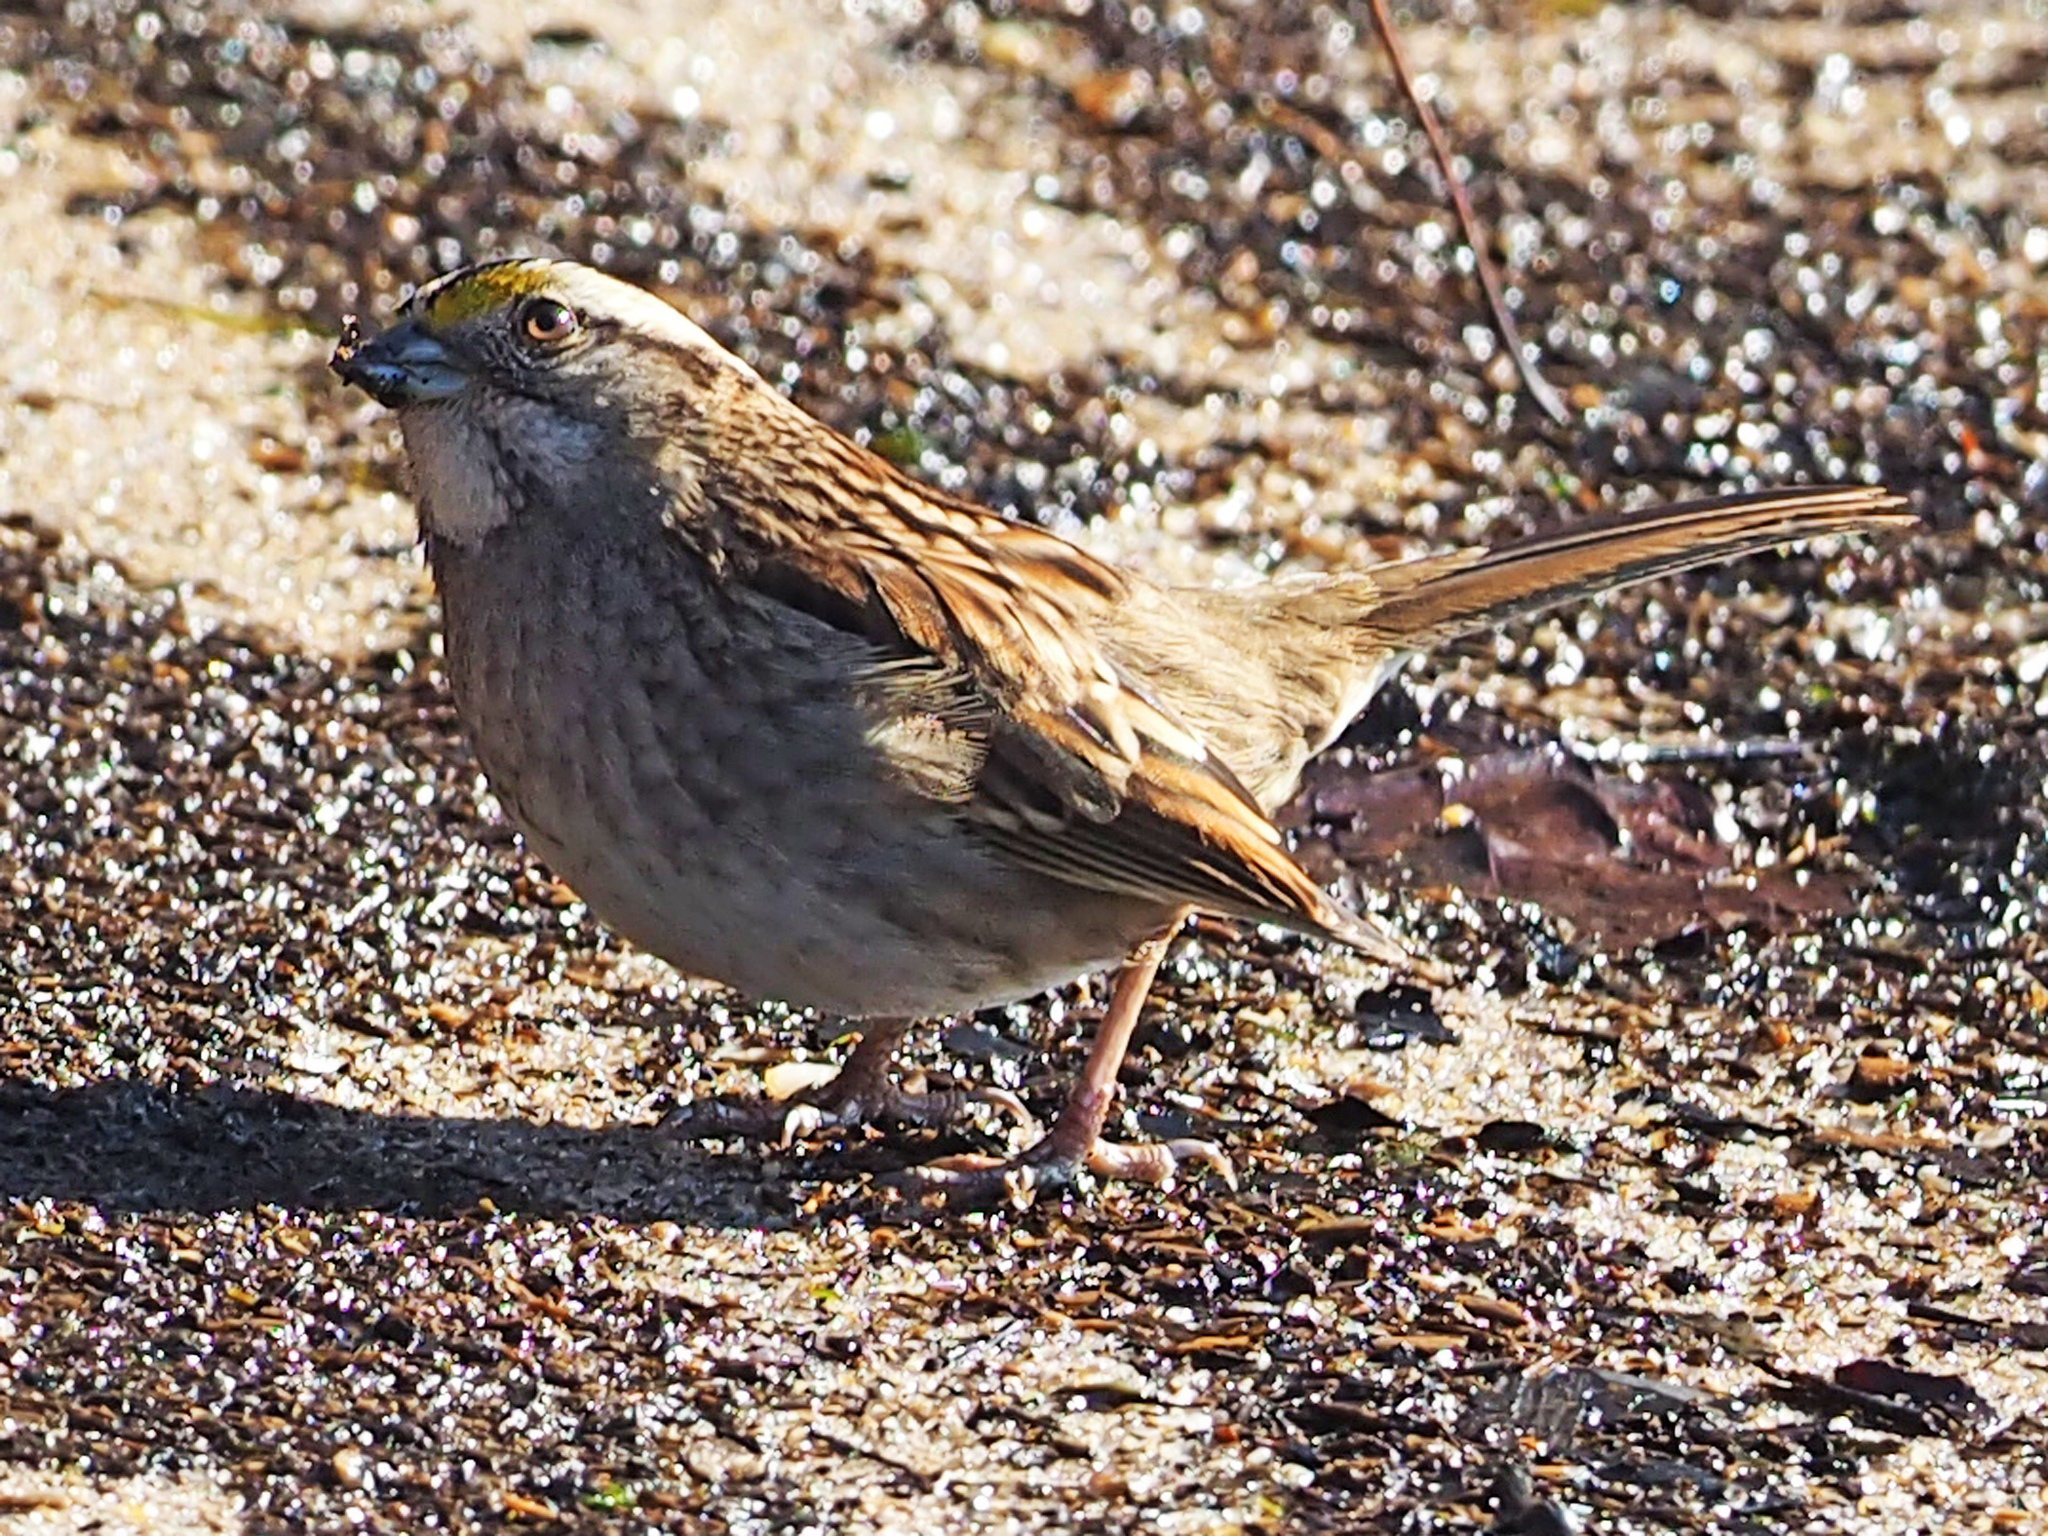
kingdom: Animalia
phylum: Chordata
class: Aves
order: Passeriformes
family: Passerellidae
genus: Zonotrichia
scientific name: Zonotrichia albicollis
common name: White-throated sparrow
